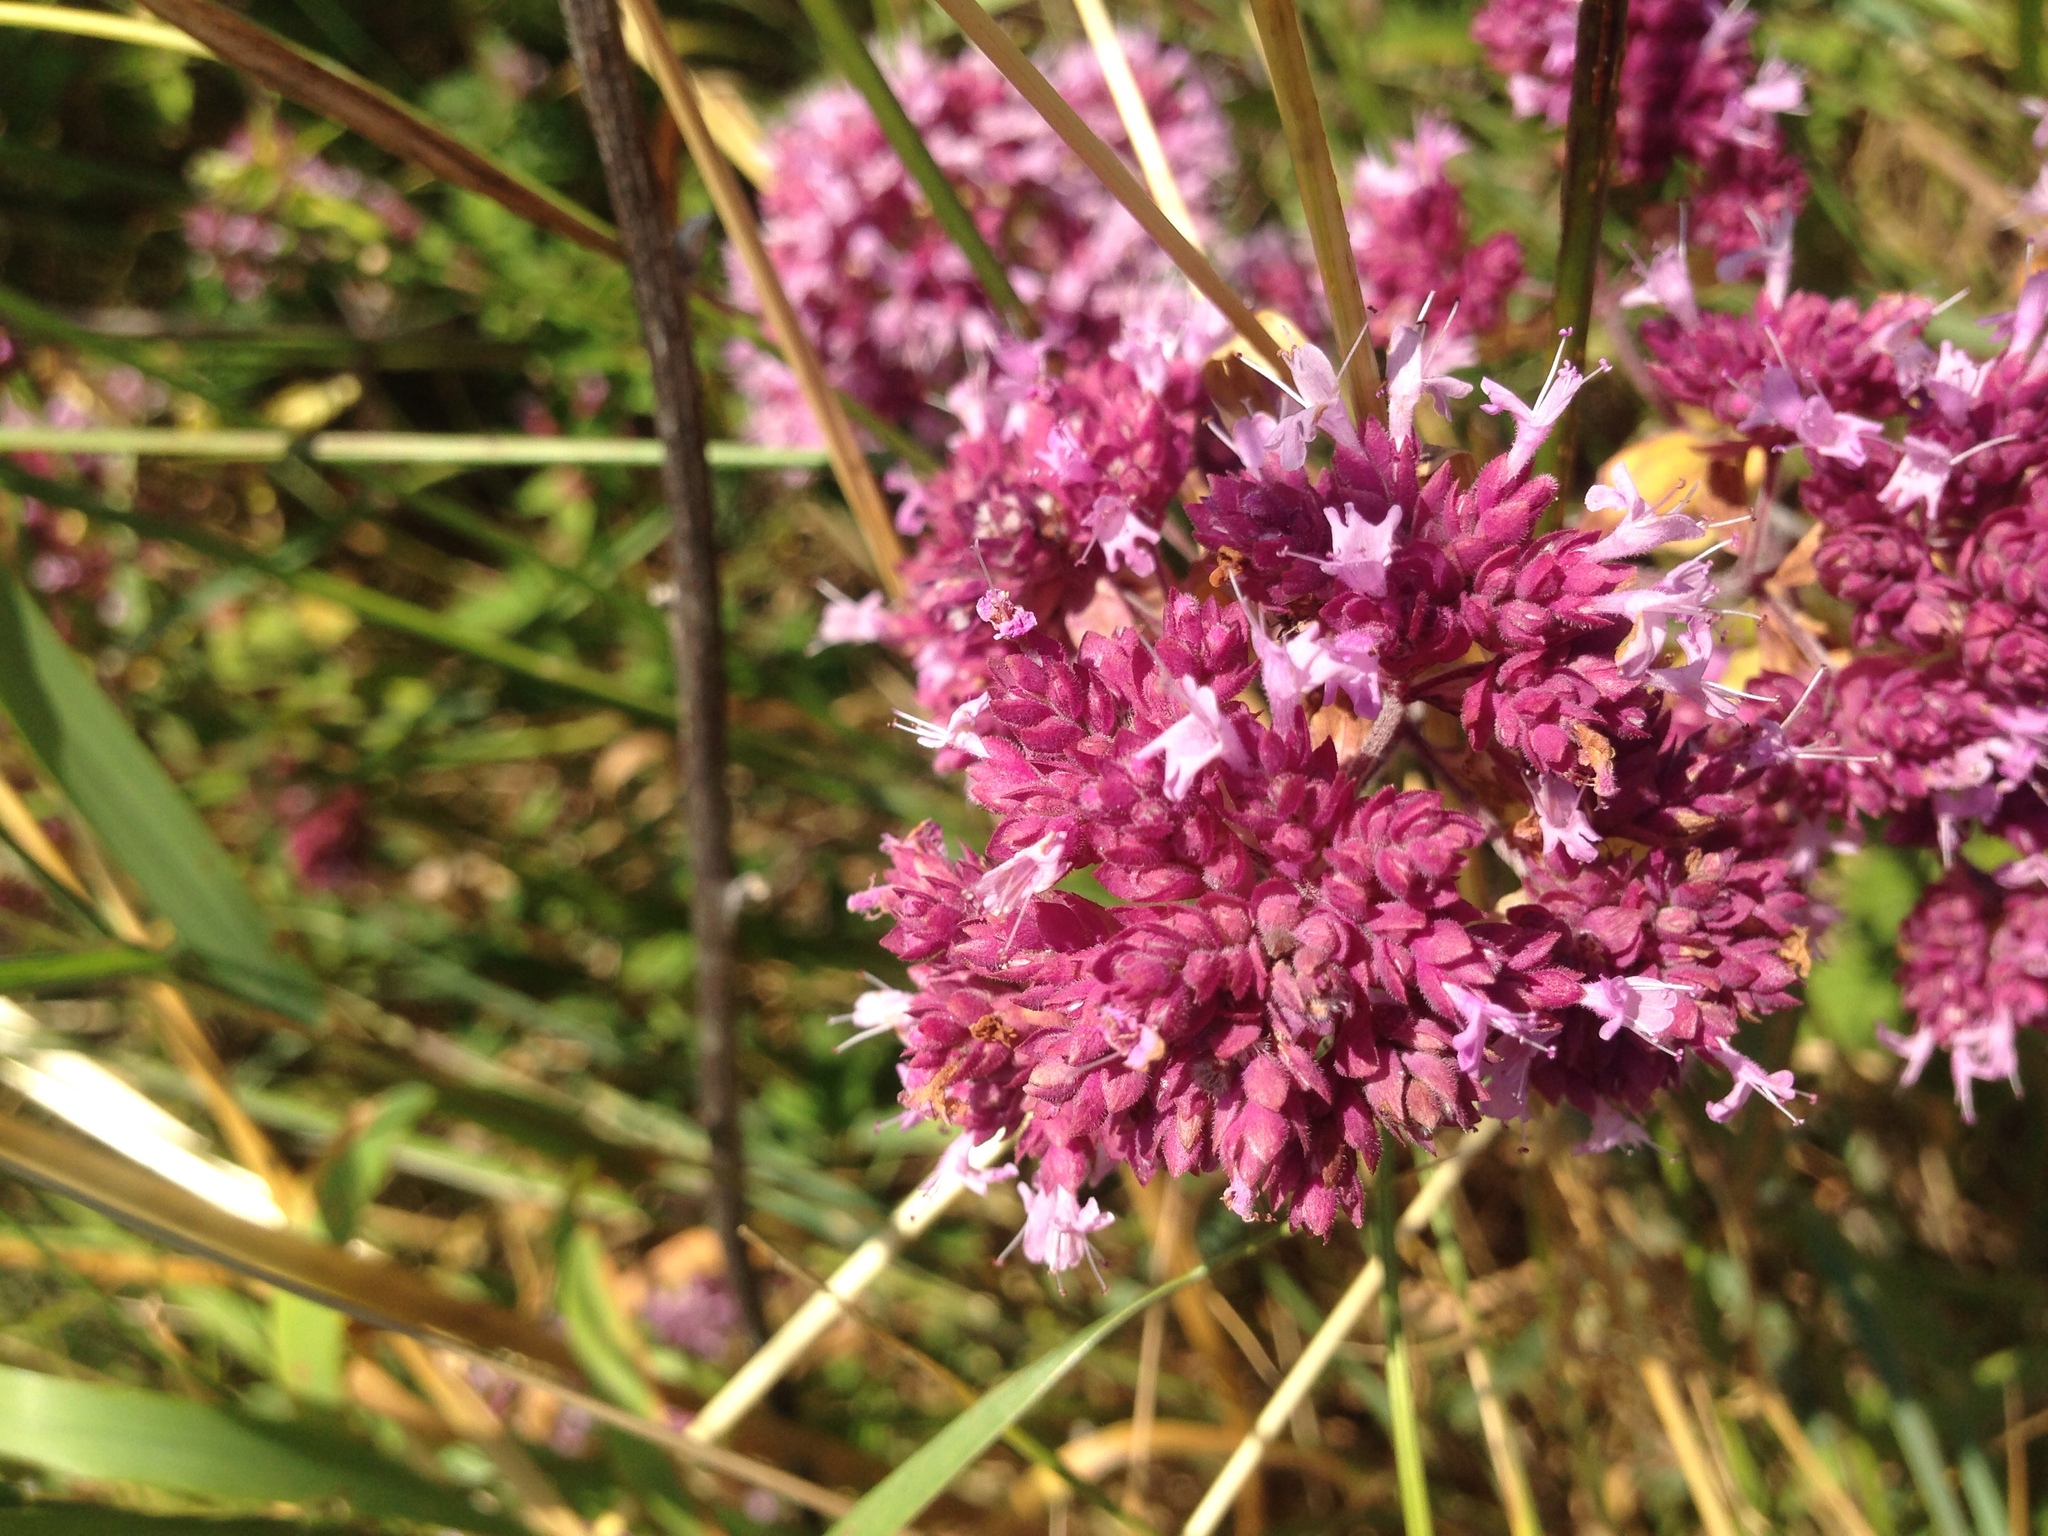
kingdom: Plantae
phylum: Tracheophyta
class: Magnoliopsida
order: Lamiales
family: Lamiaceae
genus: Origanum
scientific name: Origanum vulgare
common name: Wild marjoram
